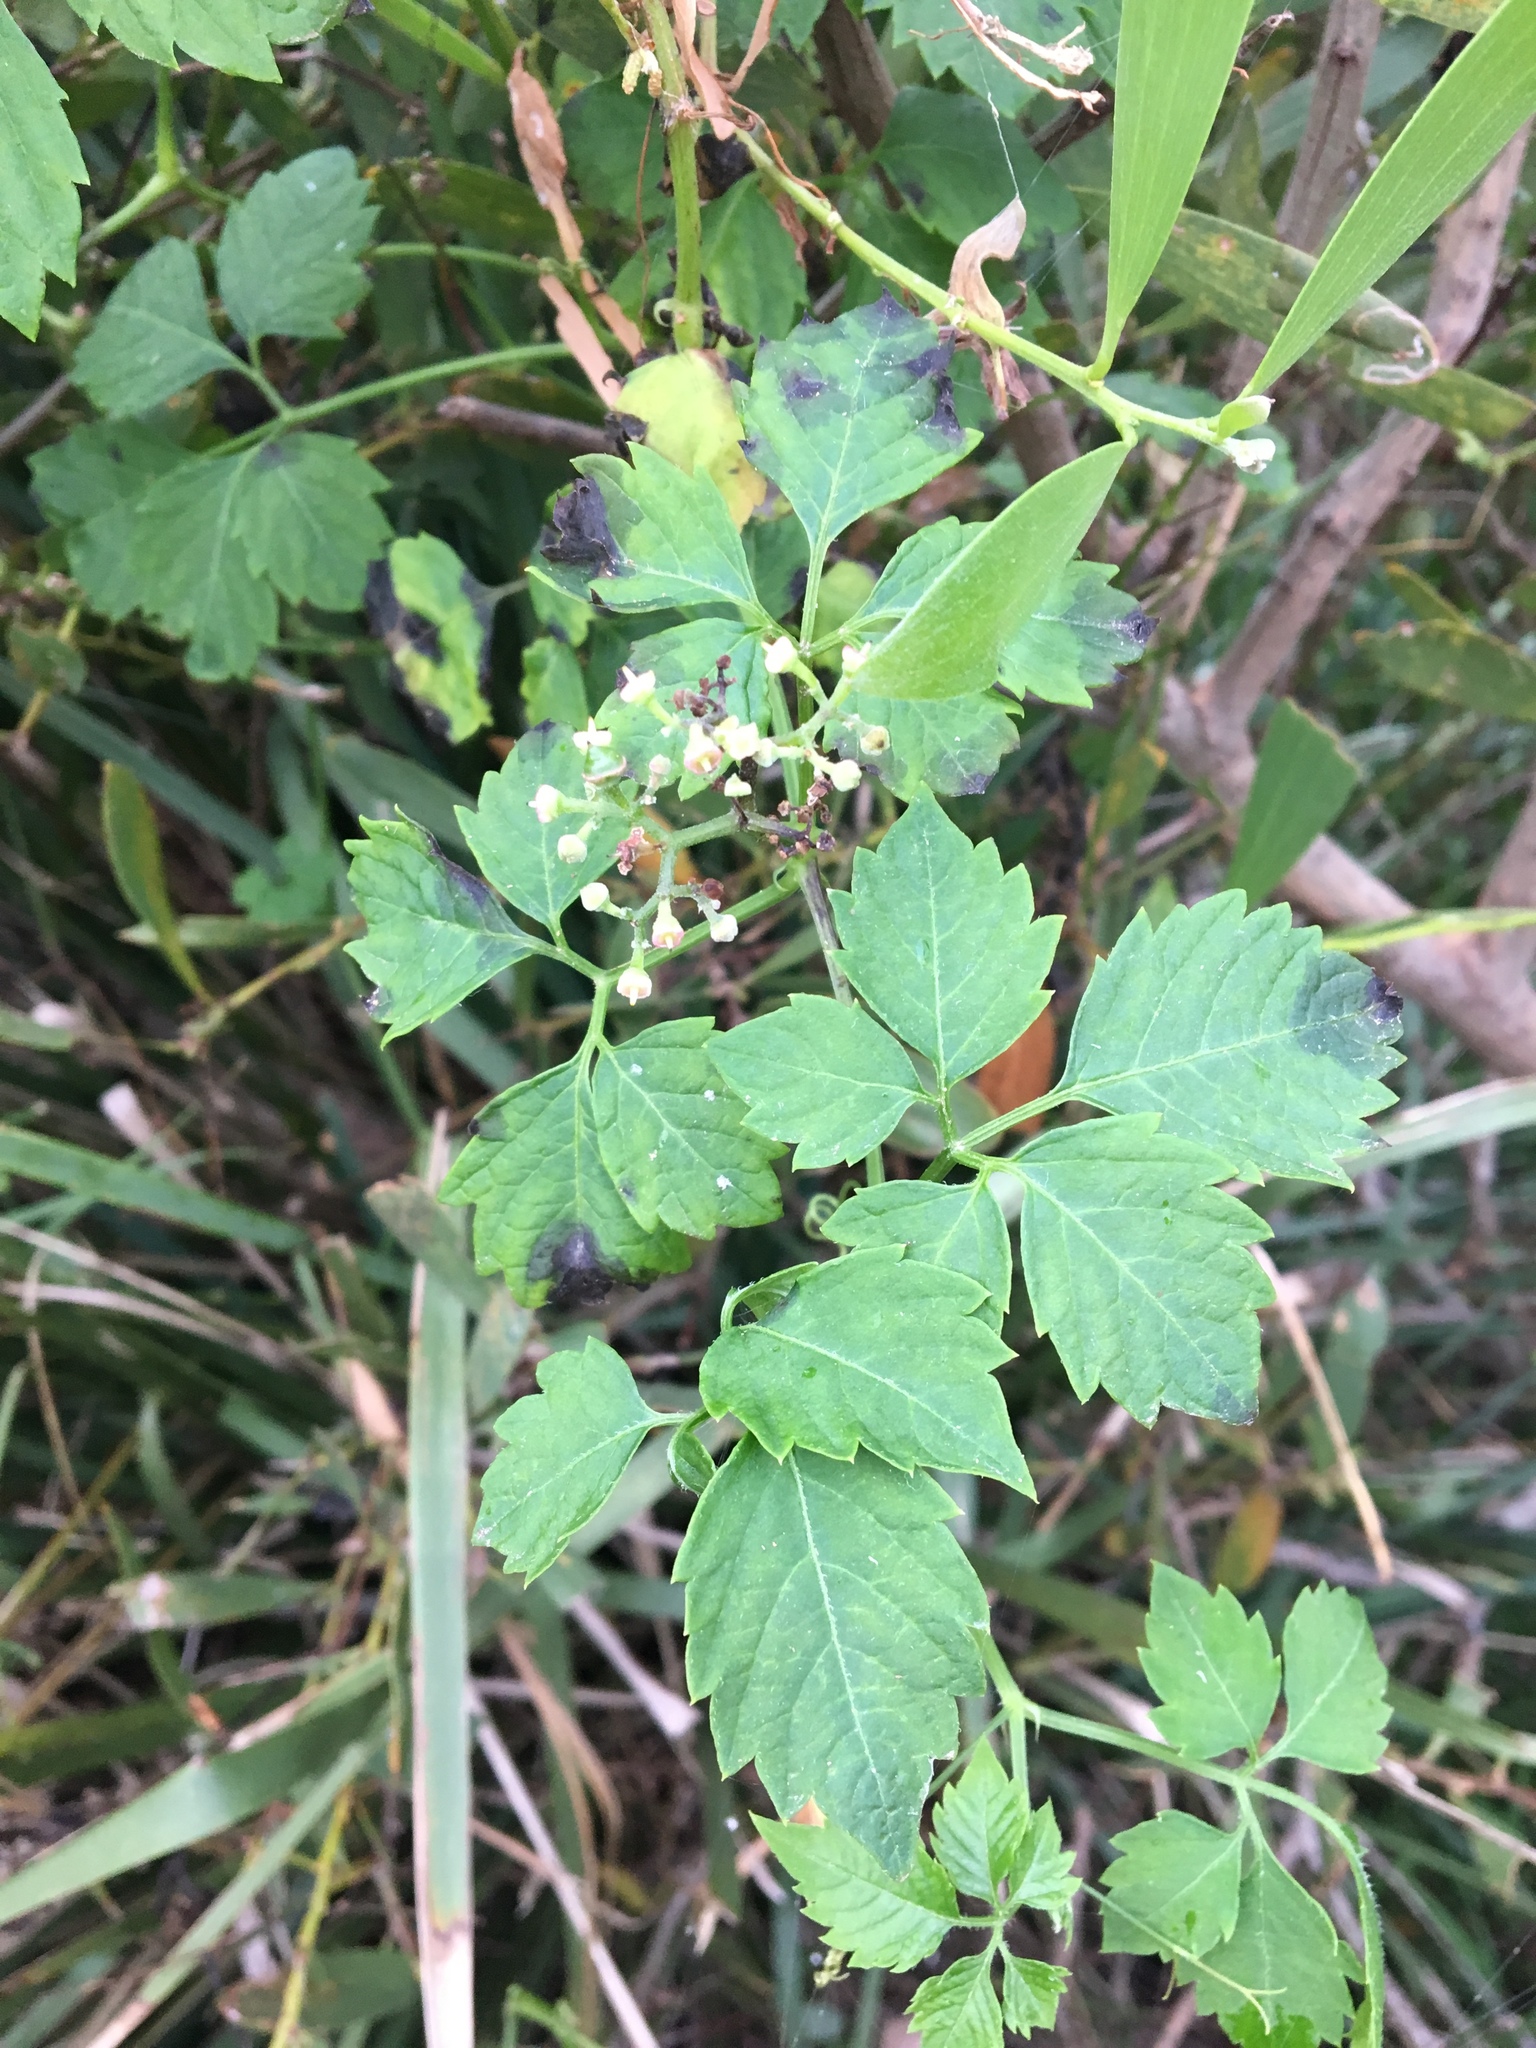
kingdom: Plantae
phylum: Tracheophyta
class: Magnoliopsida
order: Vitales
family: Vitaceae
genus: Causonis
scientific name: Causonis clematidea
